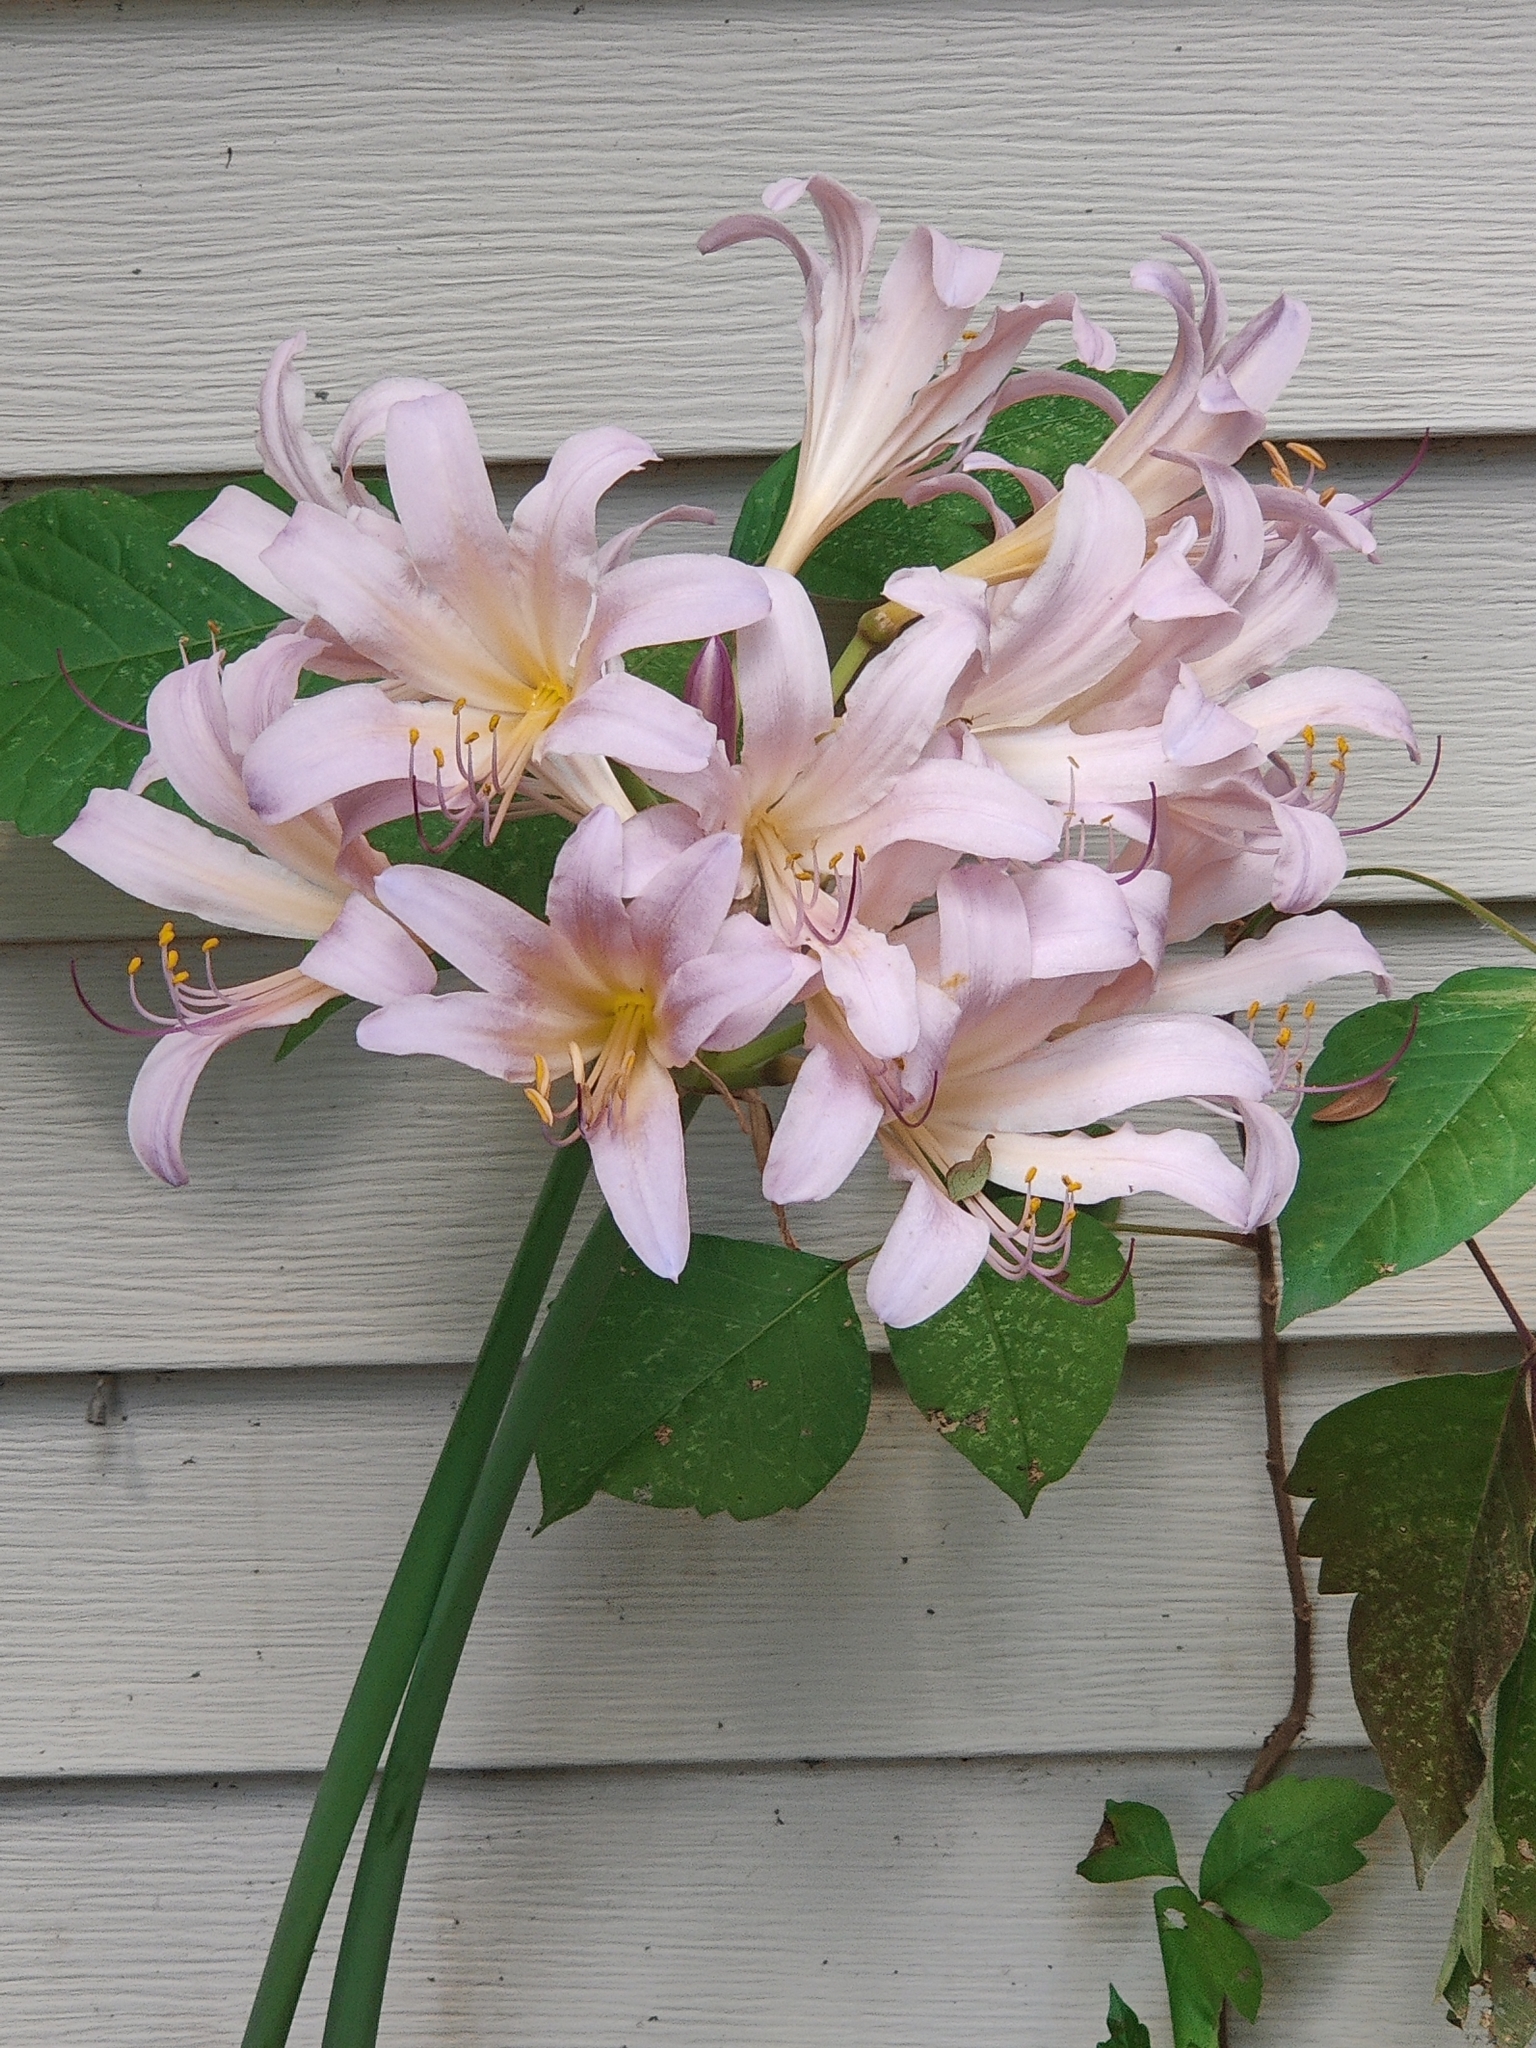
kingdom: Plantae
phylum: Tracheophyta
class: Liliopsida
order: Asparagales
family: Amaryllidaceae
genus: Lycoris
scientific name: Lycoris squamigera
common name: Magic-lily
